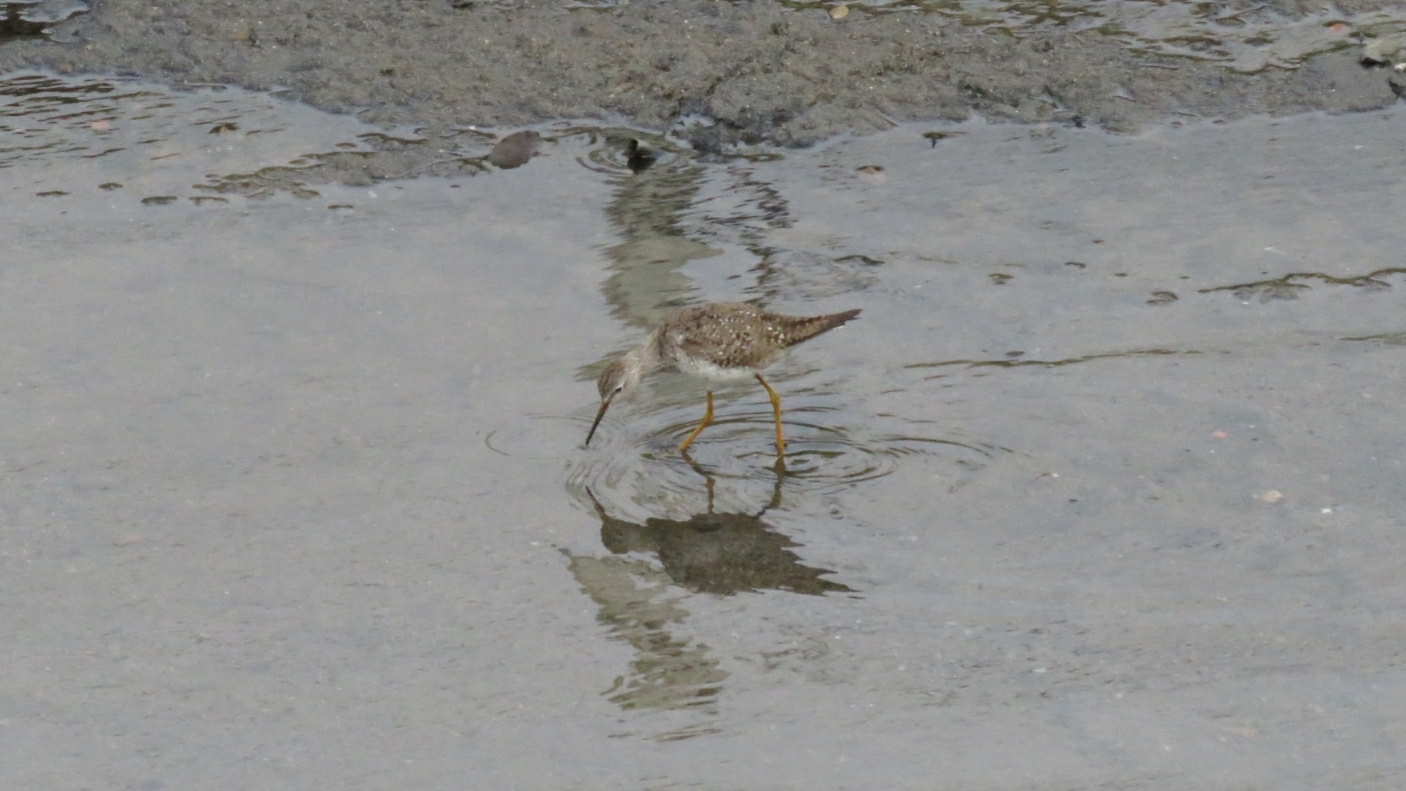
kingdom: Animalia
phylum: Chordata
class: Aves
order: Charadriiformes
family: Scolopacidae
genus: Tringa
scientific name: Tringa flavipes
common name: Lesser yellowlegs
